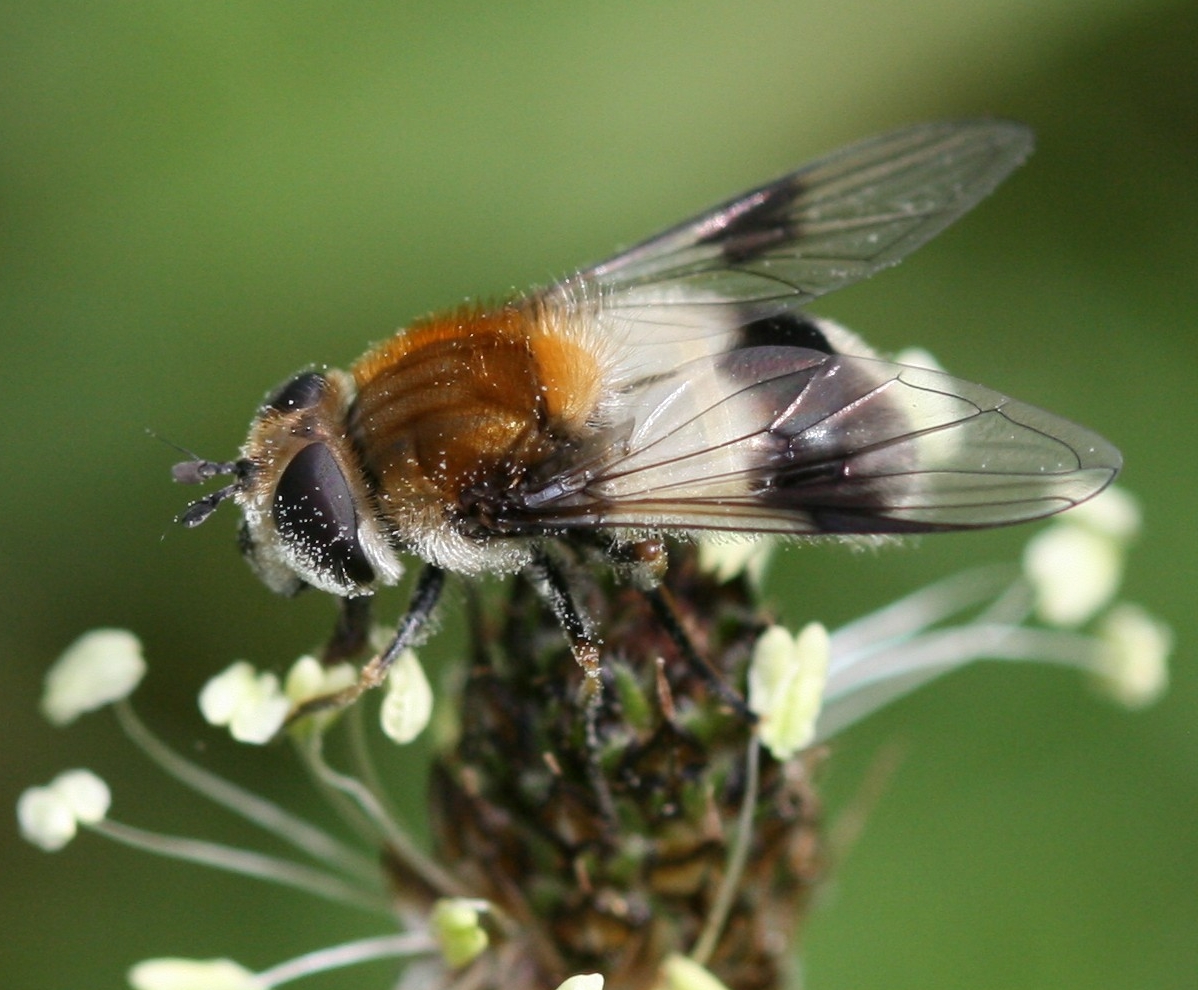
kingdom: Animalia
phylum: Arthropoda
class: Insecta
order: Diptera
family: Syrphidae
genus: Leucozona
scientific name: Leucozona lucorum
